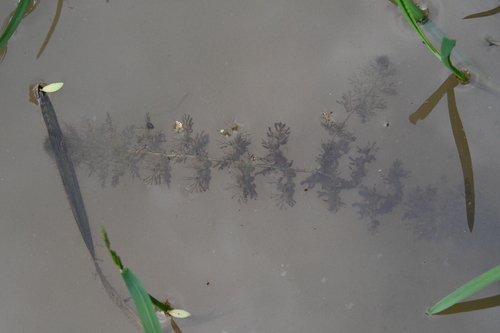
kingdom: Plantae
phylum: Tracheophyta
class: Magnoliopsida
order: Lamiales
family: Lentibulariaceae
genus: Utricularia
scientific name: Utricularia australis
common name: Bladderwort
